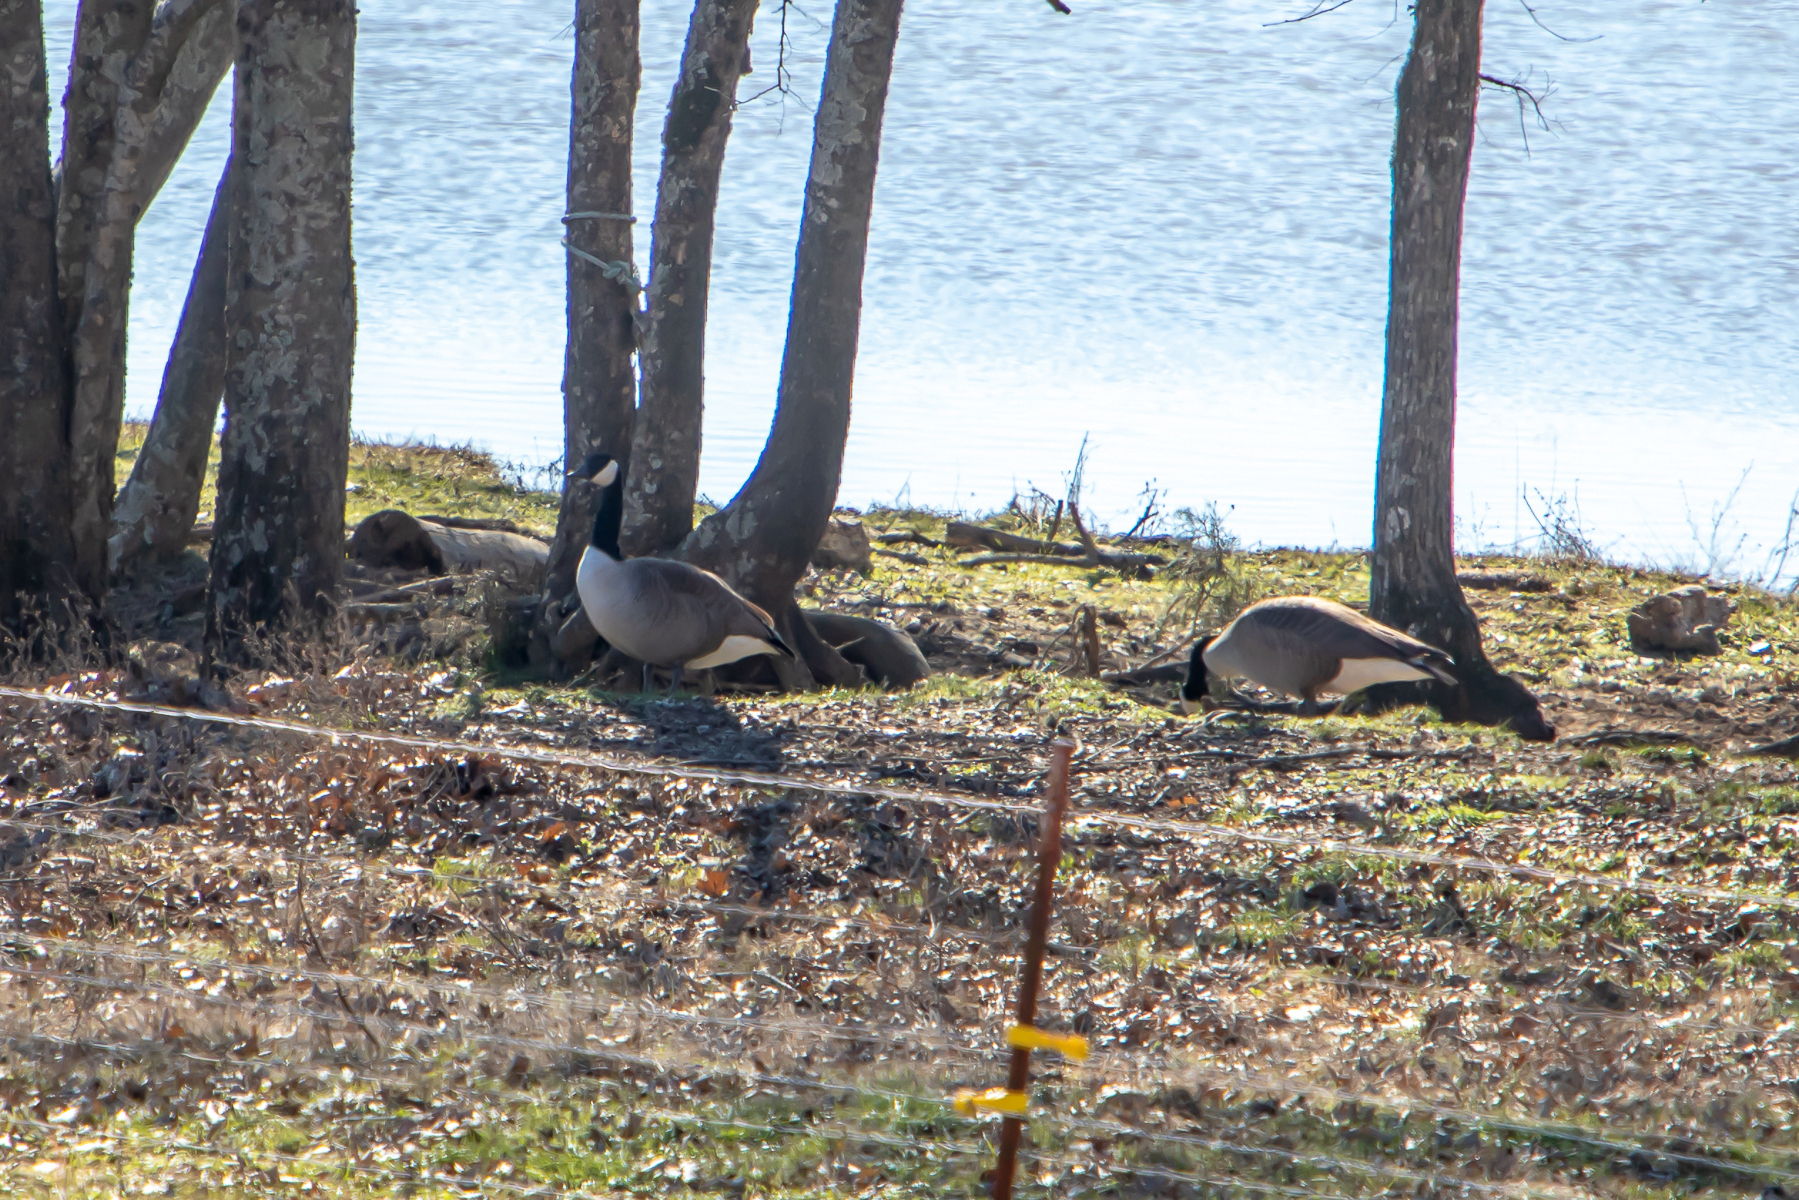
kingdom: Animalia
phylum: Chordata
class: Aves
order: Anseriformes
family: Anatidae
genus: Branta
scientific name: Branta canadensis
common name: Canada goose
